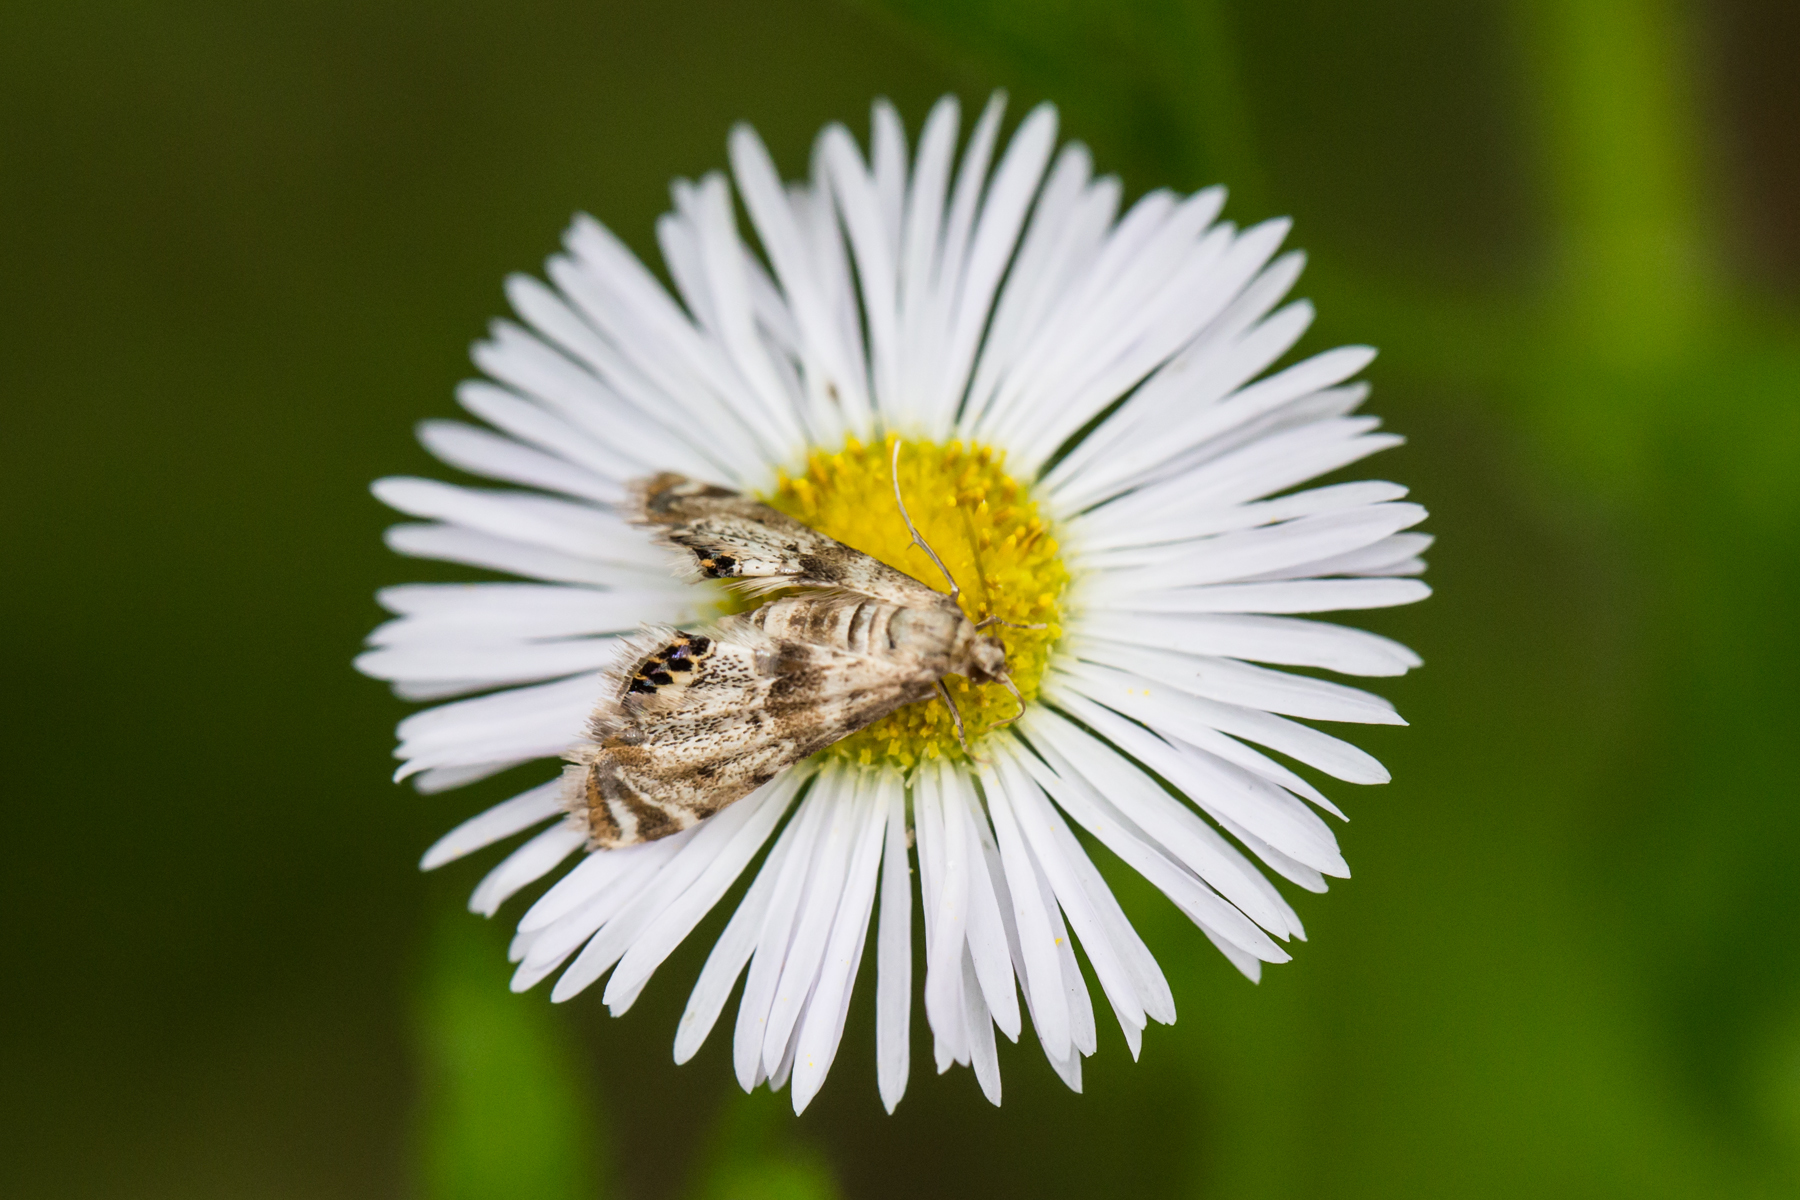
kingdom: Animalia
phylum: Arthropoda
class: Insecta
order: Lepidoptera
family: Crambidae
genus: Petrophila
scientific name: Petrophila fulicalis
